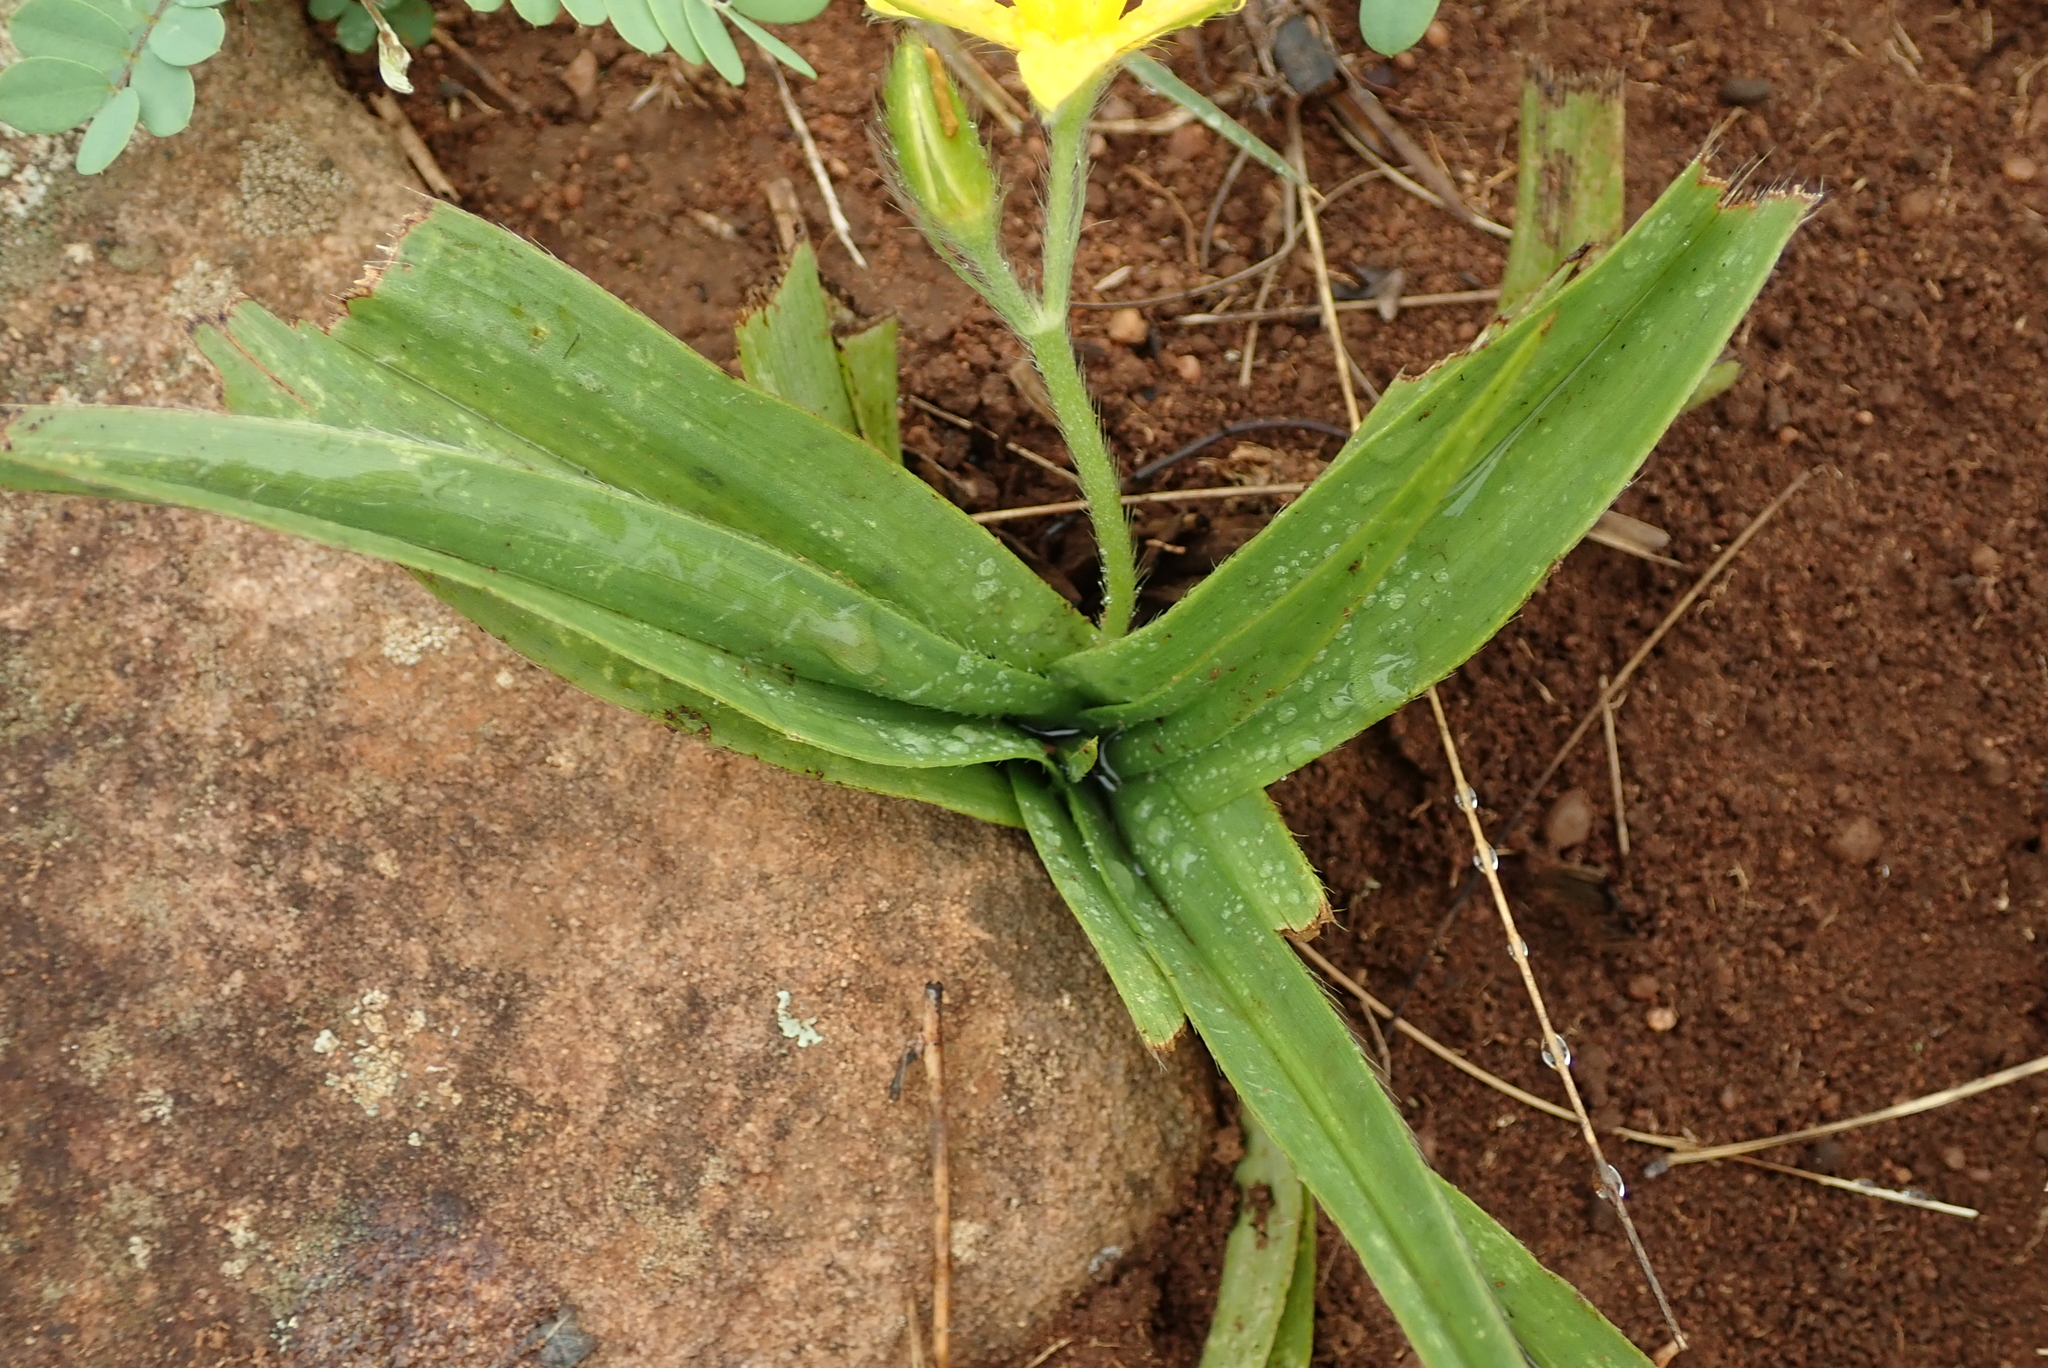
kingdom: Plantae
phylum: Tracheophyta
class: Liliopsida
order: Asparagales
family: Hypoxidaceae
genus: Hypoxis
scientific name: Hypoxis hemerocallidea
